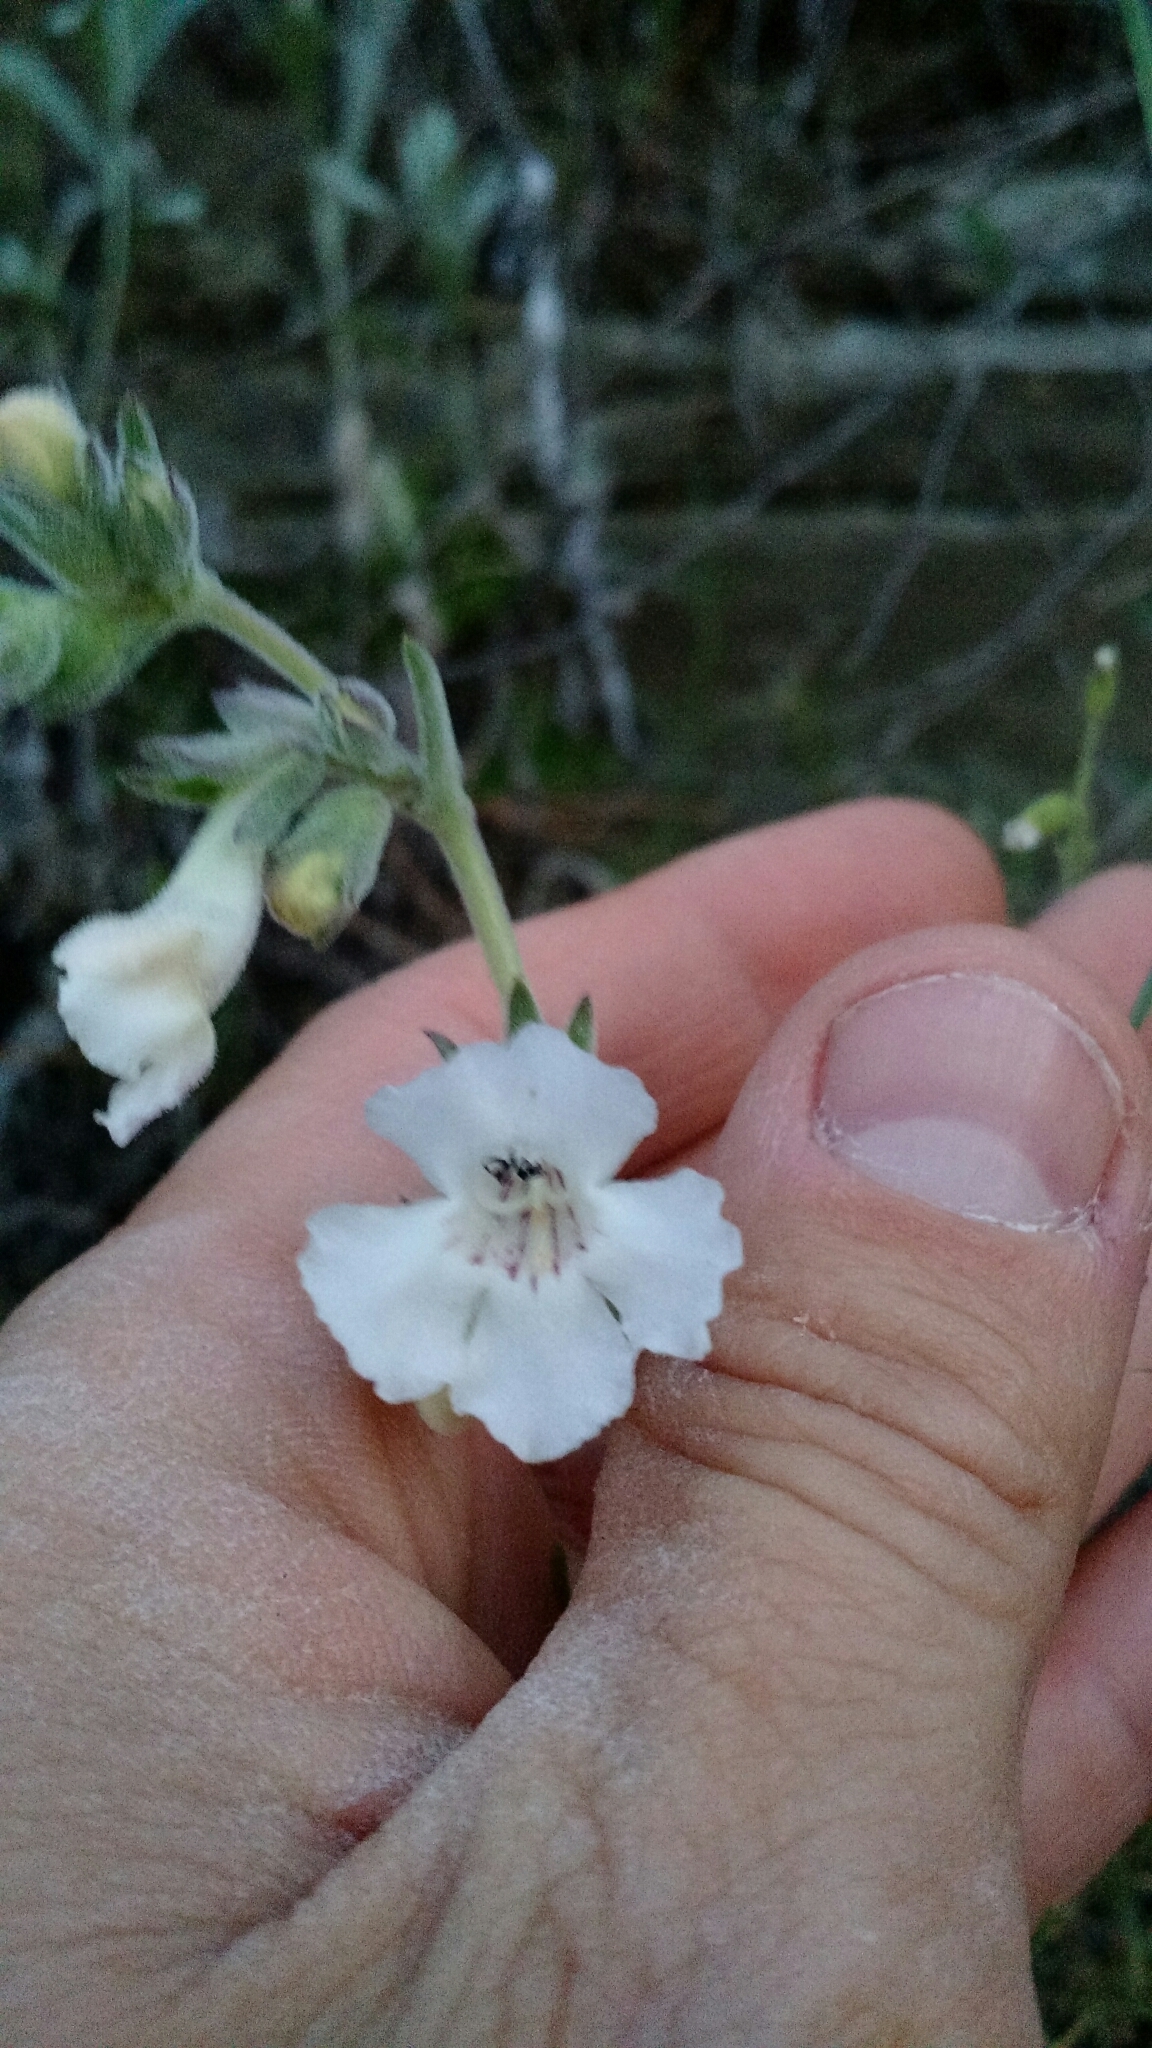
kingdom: Plantae
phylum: Tracheophyta
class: Magnoliopsida
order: Lamiales
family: Plantaginaceae
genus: Penstemon
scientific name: Penstemon albidus
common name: White beardtongue
